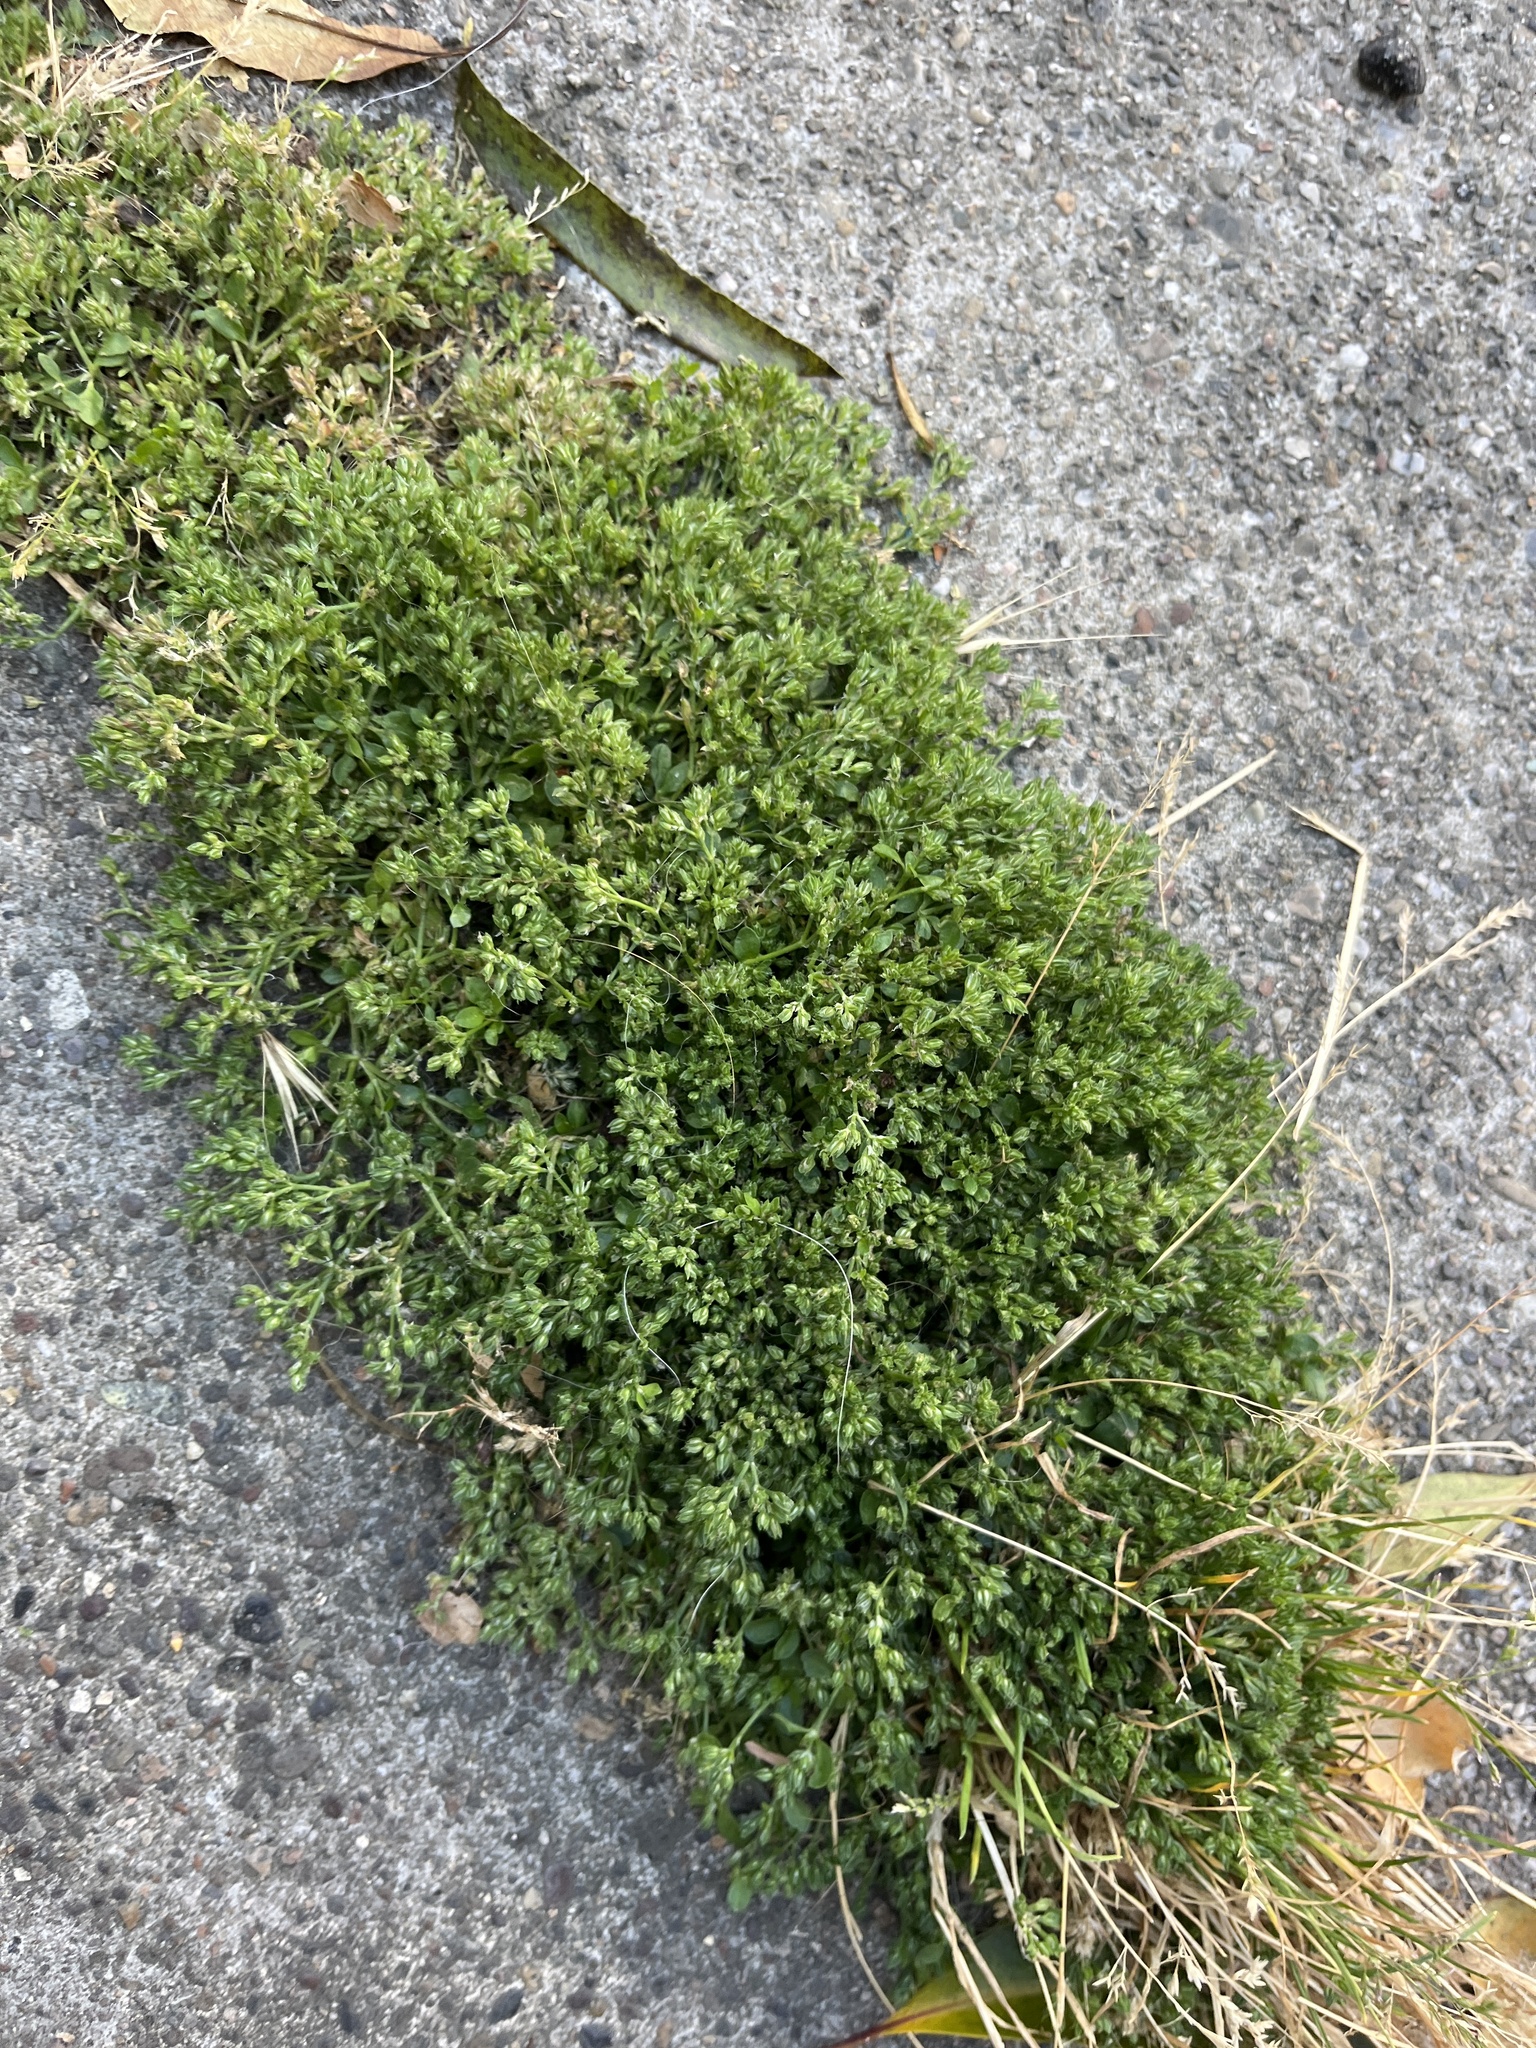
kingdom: Plantae
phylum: Tracheophyta
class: Magnoliopsida
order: Caryophyllales
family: Caryophyllaceae
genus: Polycarpon
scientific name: Polycarpon tetraphyllum
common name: Four-leaved all-seed
